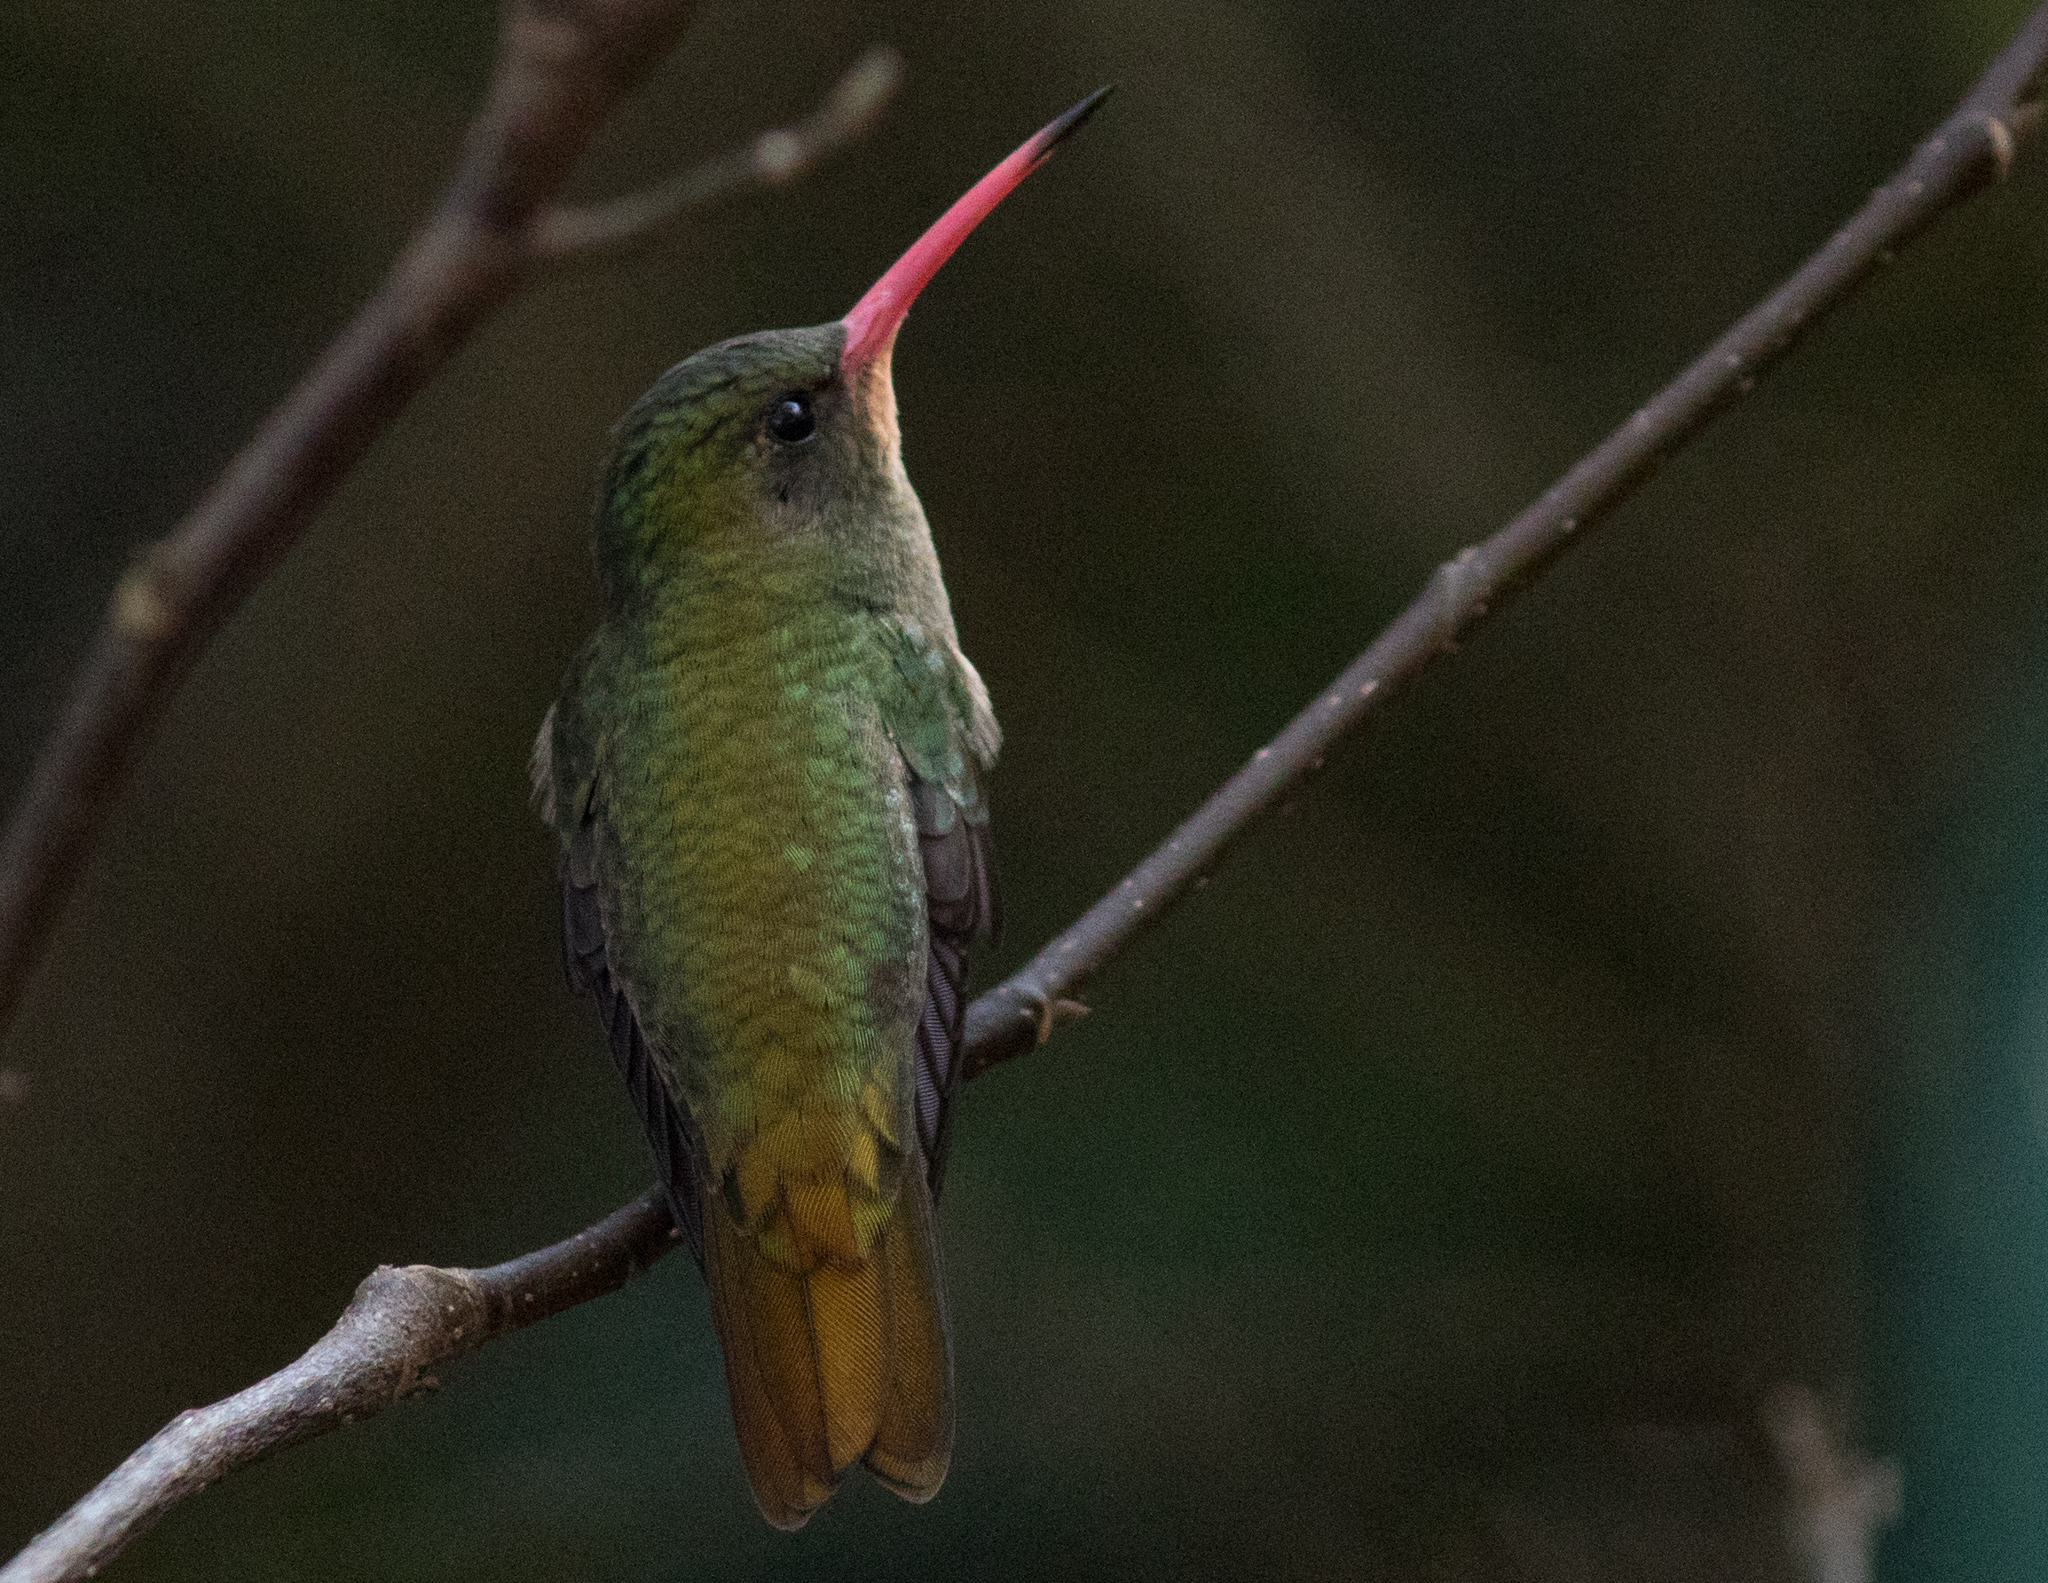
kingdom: Animalia
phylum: Chordata
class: Aves
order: Apodiformes
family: Trochilidae
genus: Hylocharis
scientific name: Hylocharis chrysura
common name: Gilded sapphire
